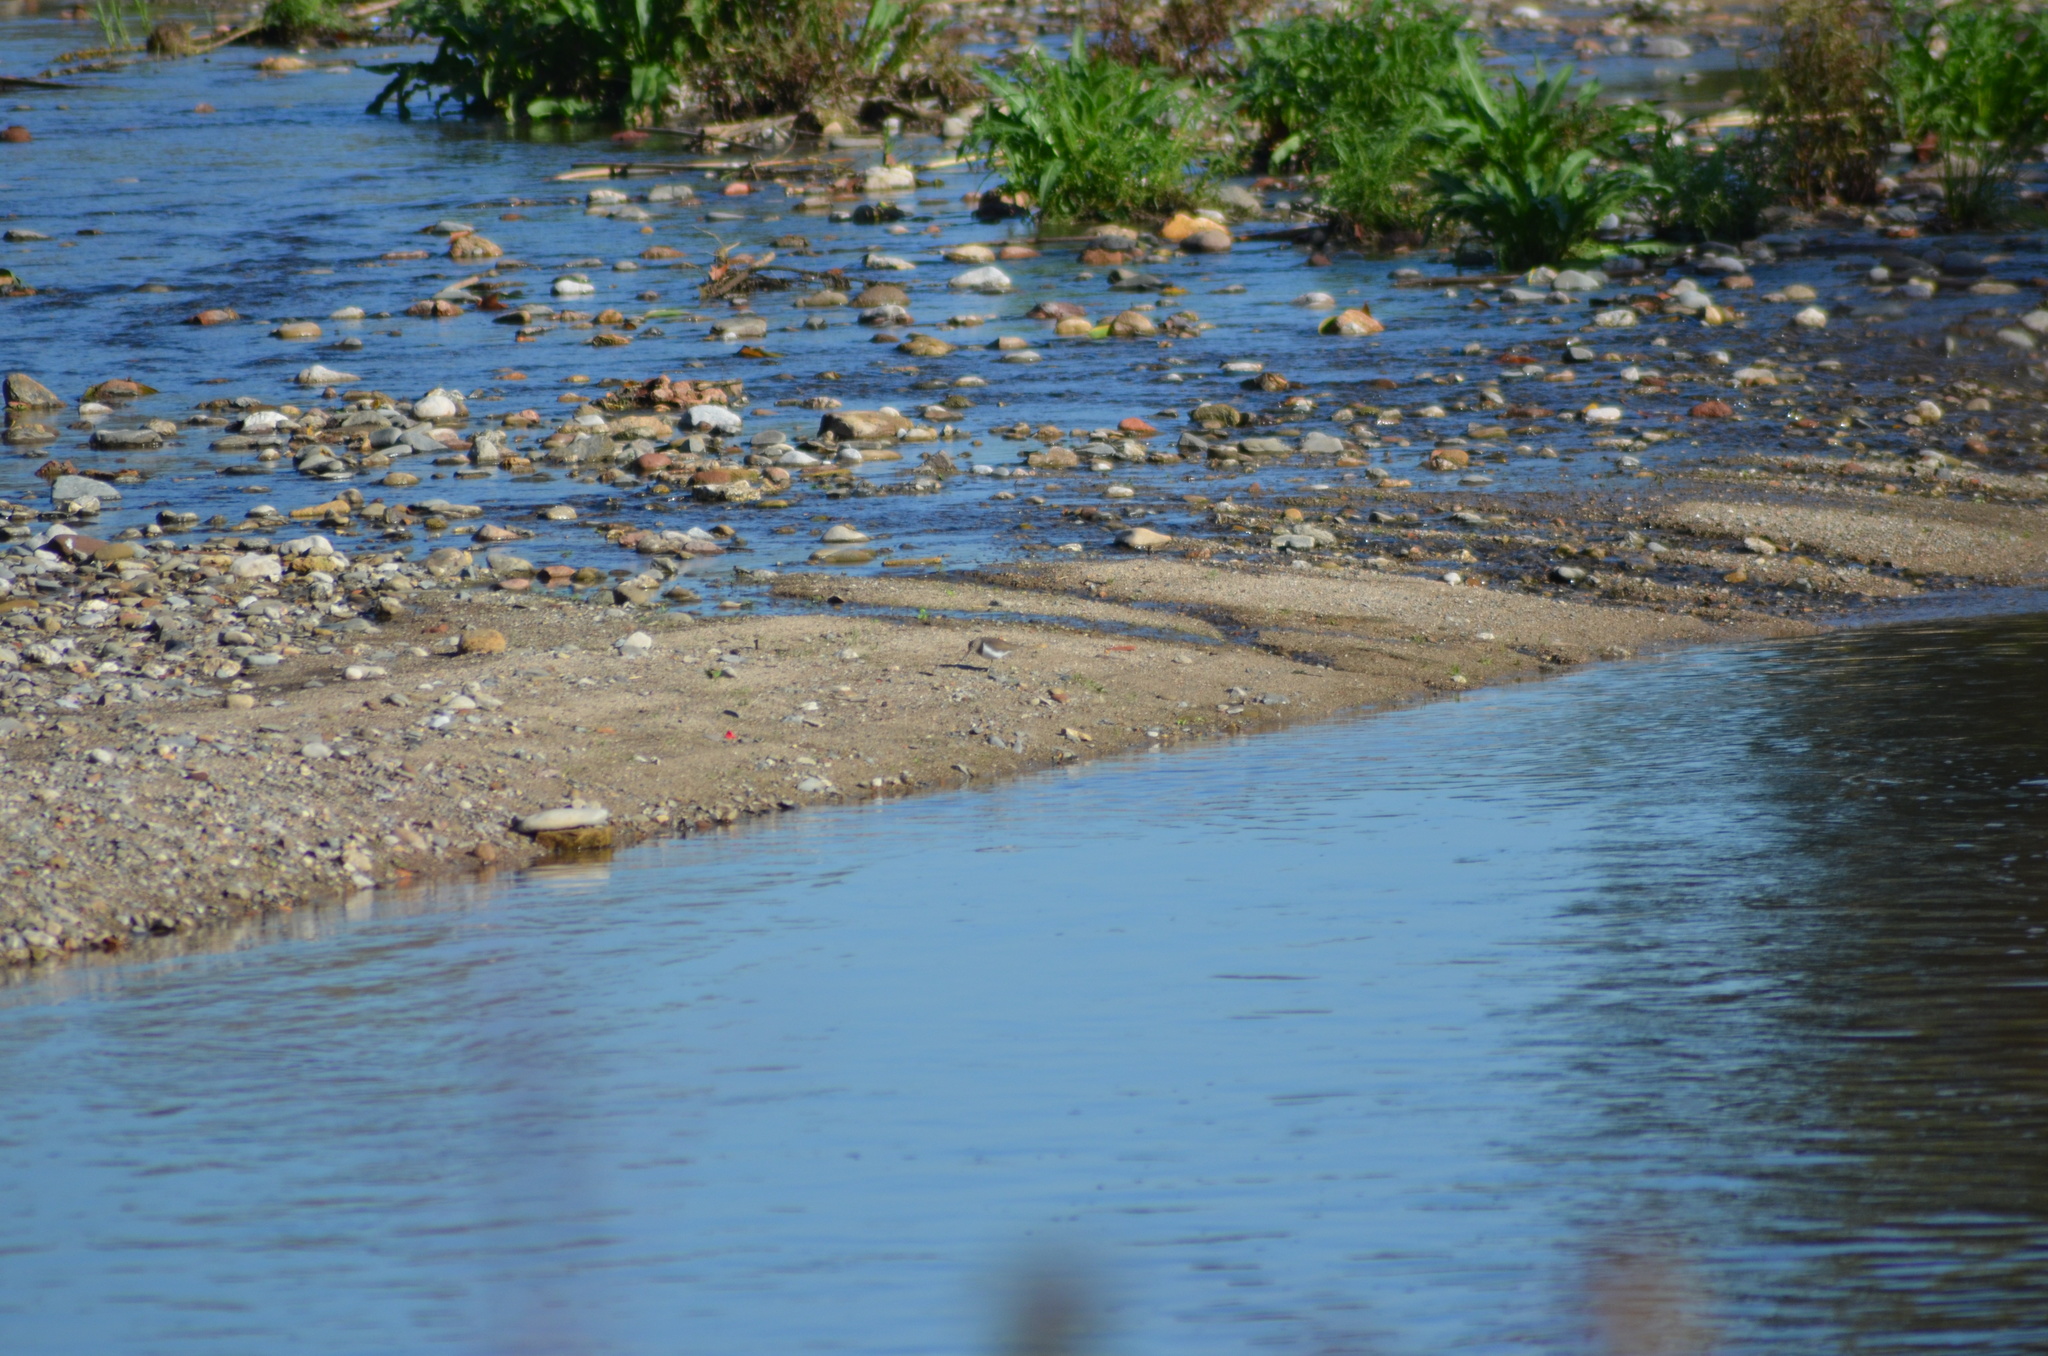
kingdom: Animalia
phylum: Chordata
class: Aves
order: Charadriiformes
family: Scolopacidae
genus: Actitis
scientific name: Actitis hypoleucos
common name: Common sandpiper
